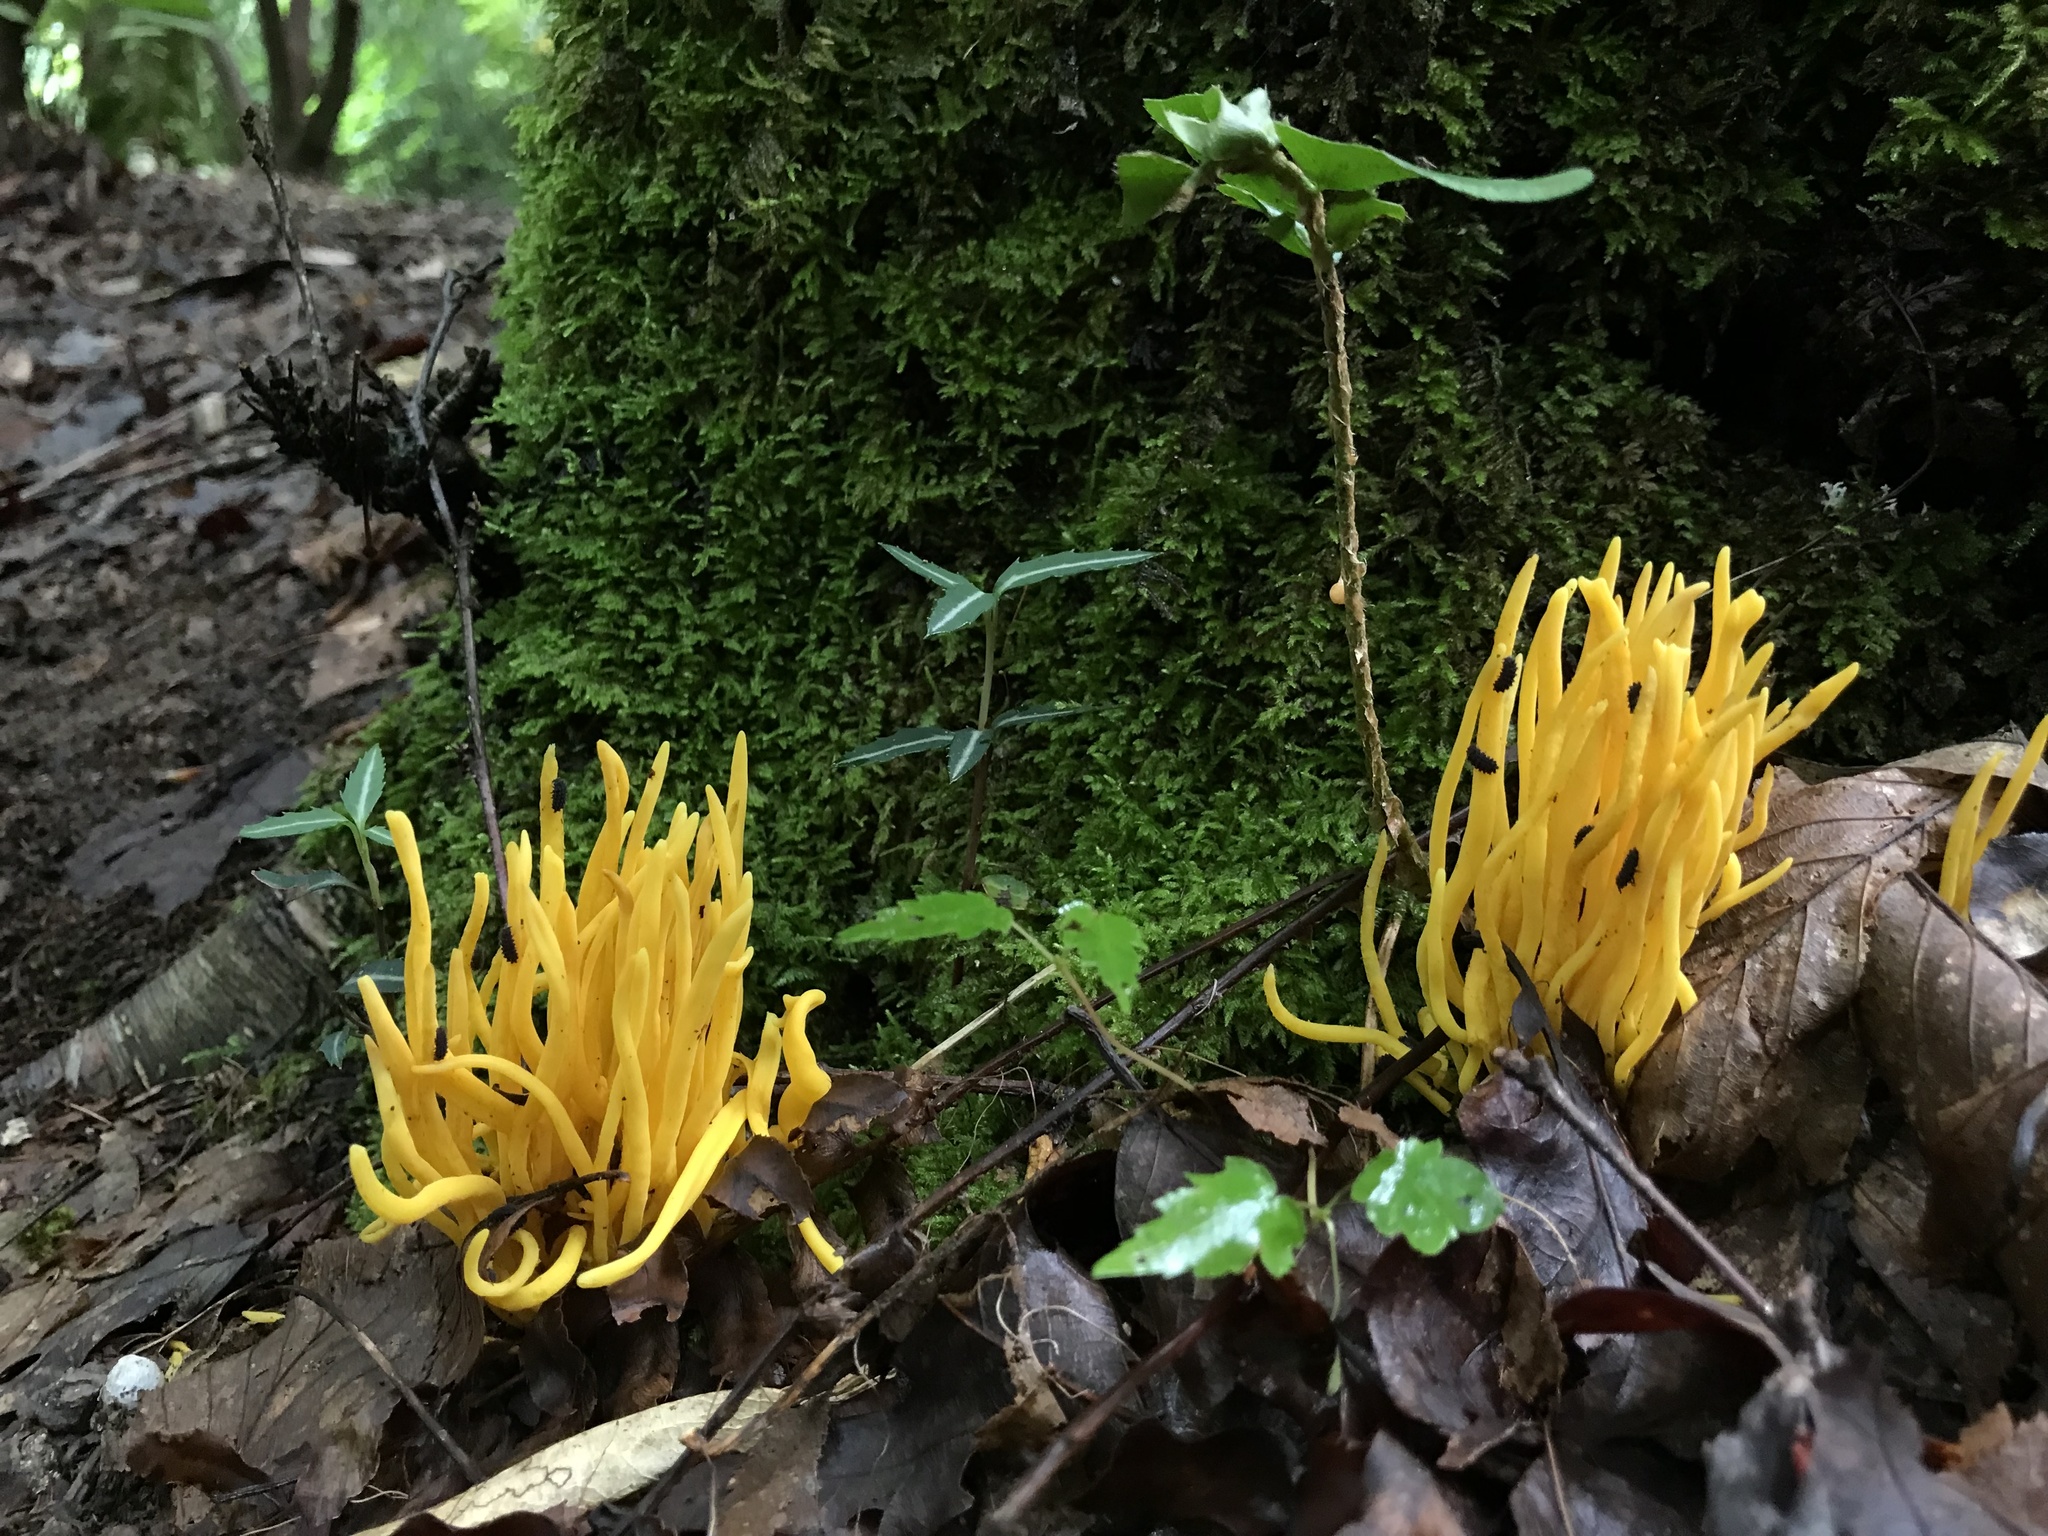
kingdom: Fungi
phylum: Basidiomycota
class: Agaricomycetes
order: Agaricales
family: Clavariaceae
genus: Clavulinopsis
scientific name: Clavulinopsis fusiformis
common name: Golden spindles
